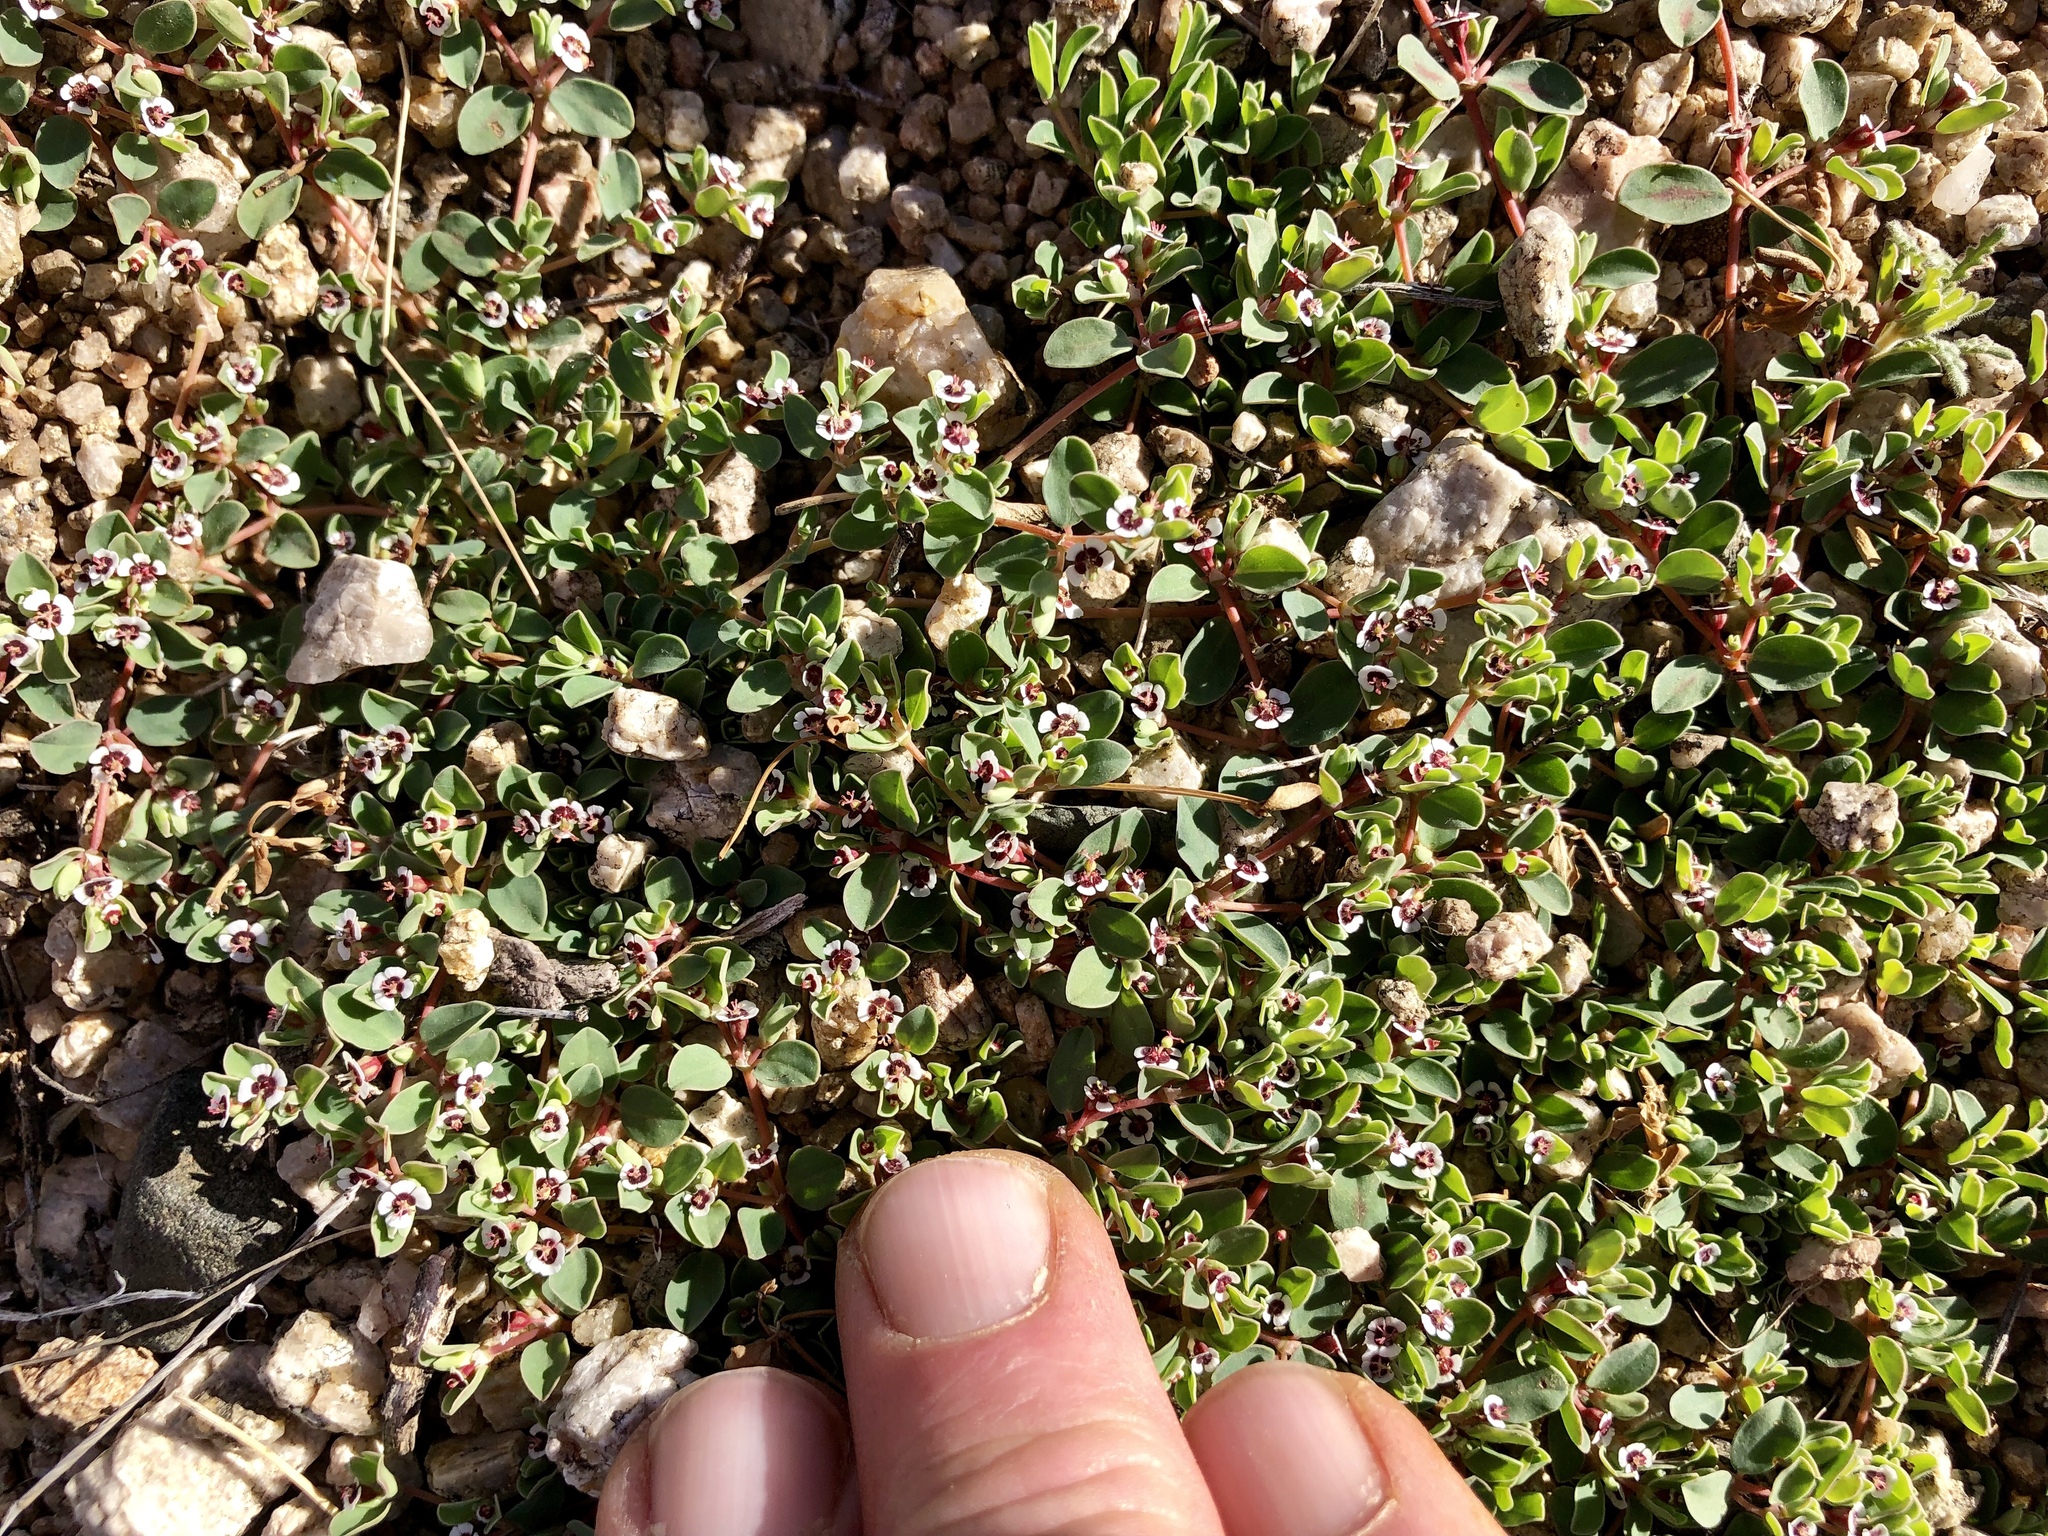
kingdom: Plantae
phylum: Tracheophyta
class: Magnoliopsida
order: Malpighiales
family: Euphorbiaceae
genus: Euphorbia
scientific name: Euphorbia albomarginata
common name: Whitemargin sandmat
